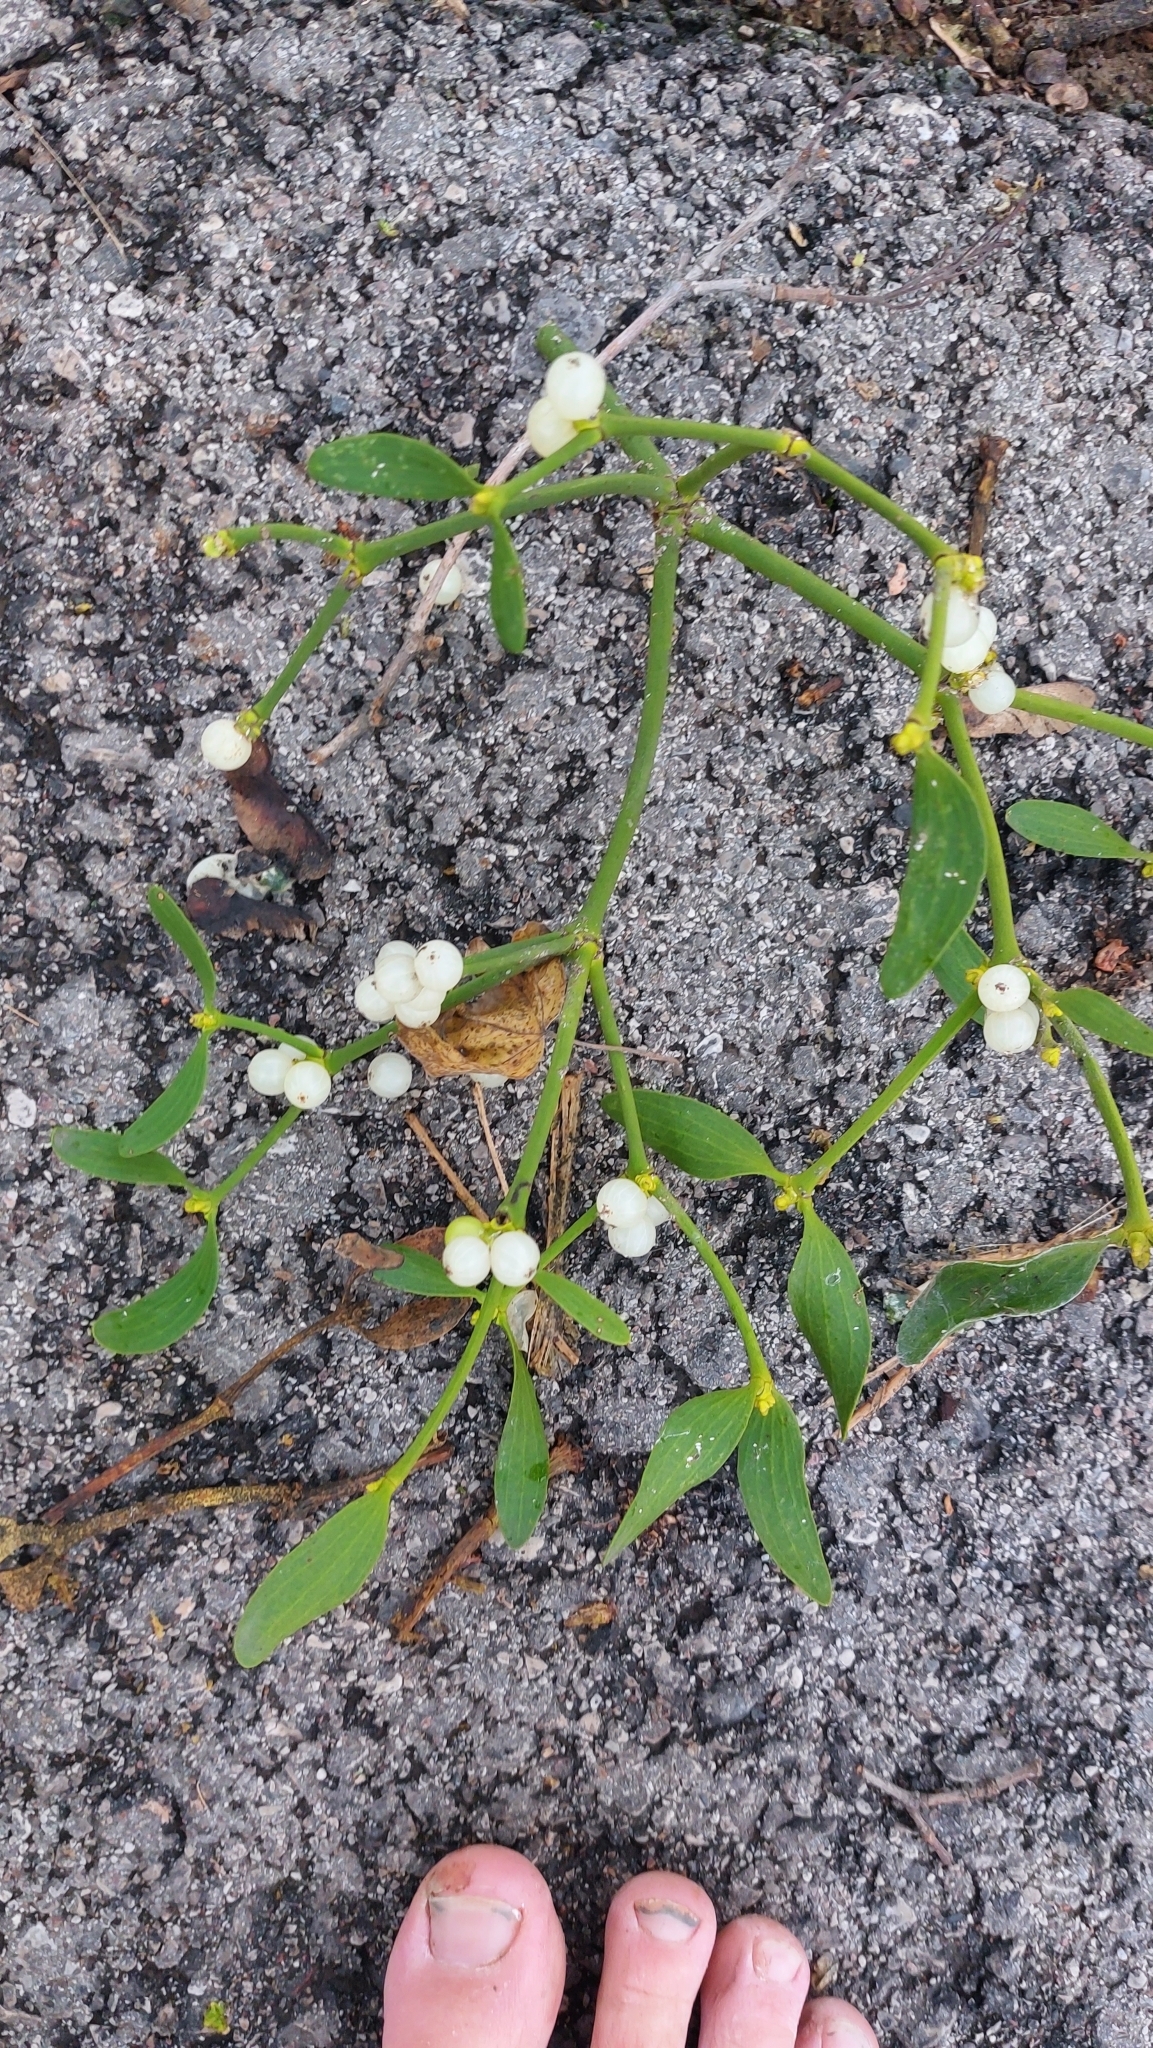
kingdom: Plantae
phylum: Tracheophyta
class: Magnoliopsida
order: Santalales
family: Viscaceae
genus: Viscum
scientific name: Viscum album
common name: Mistletoe
